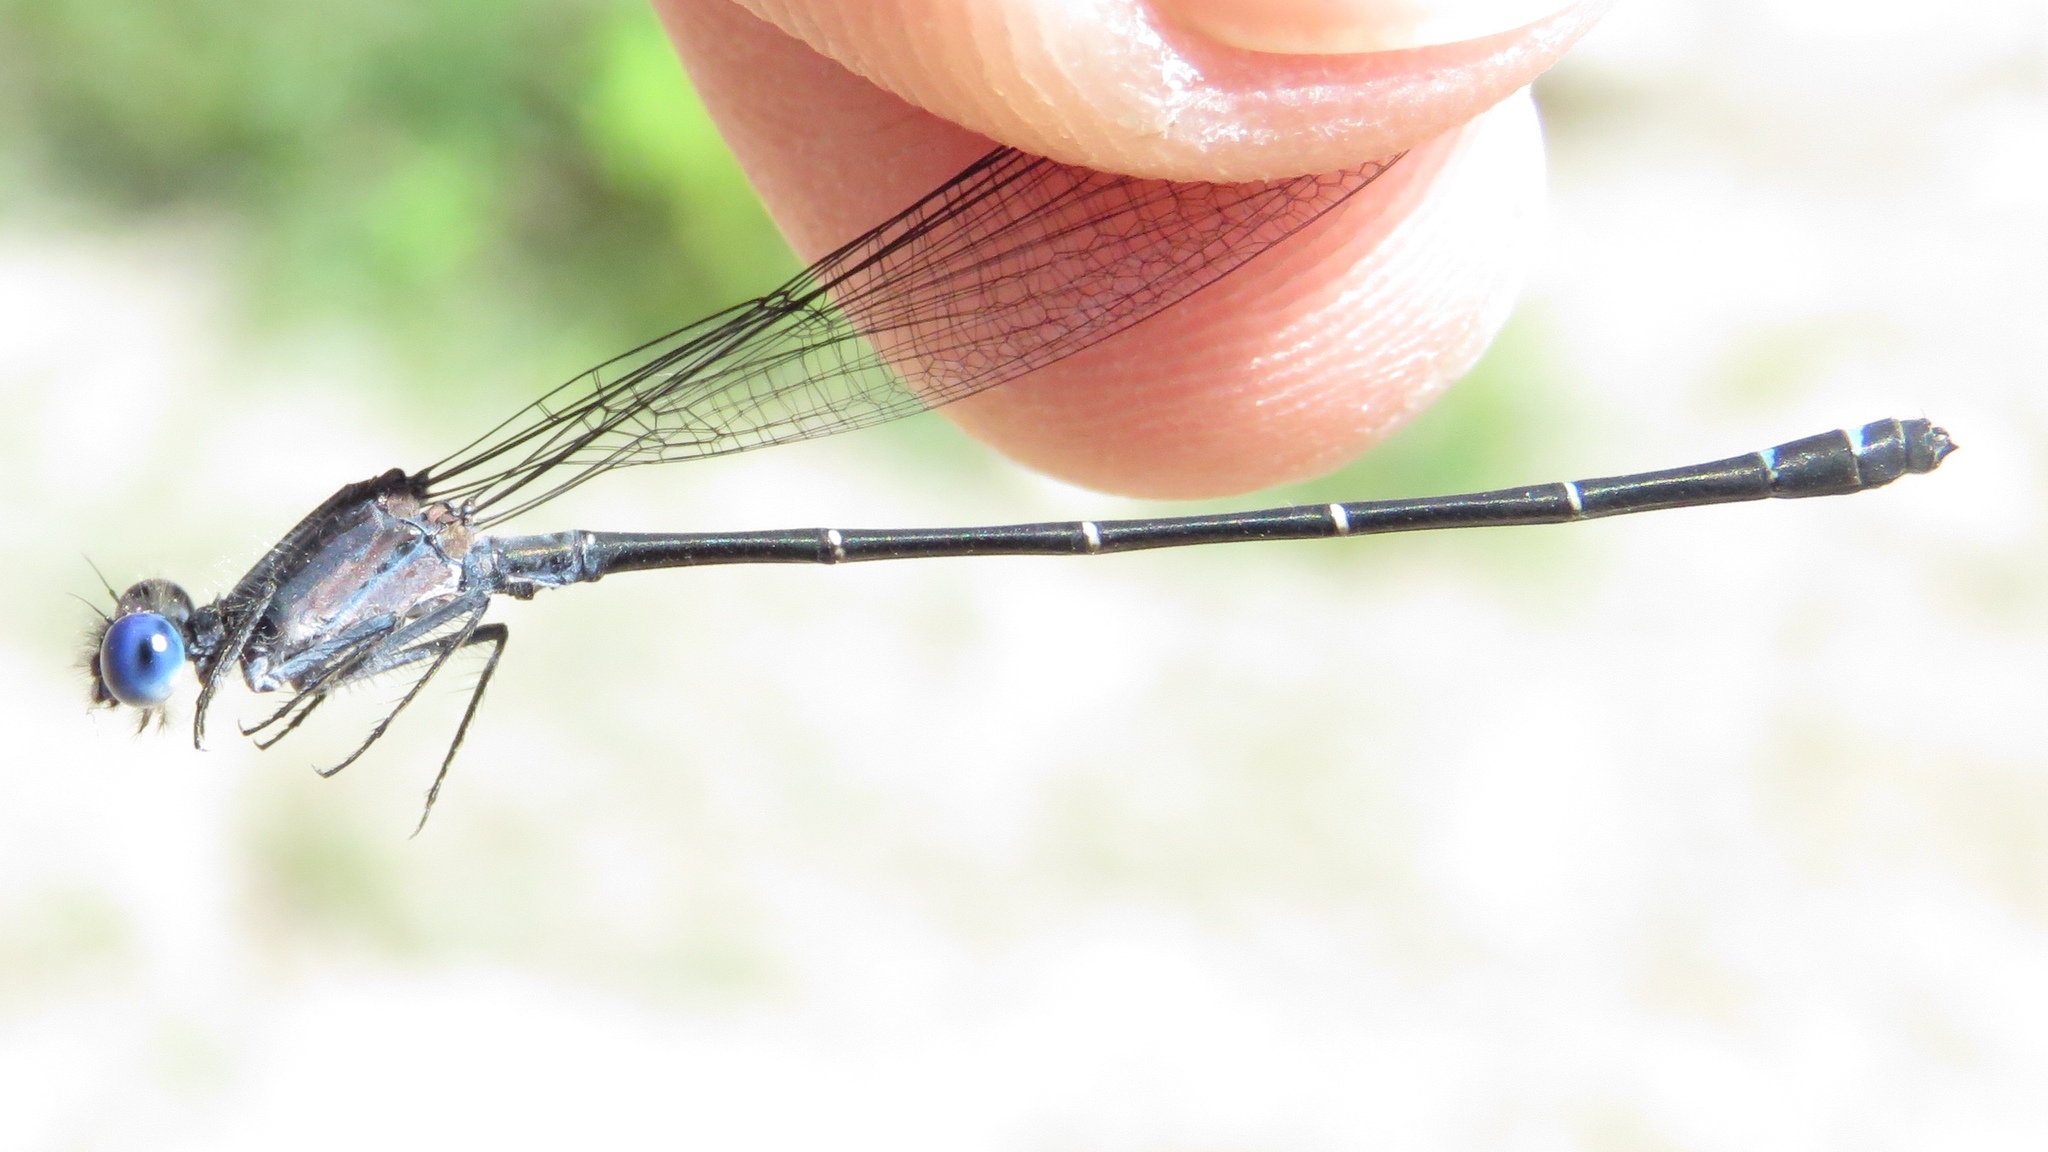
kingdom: Animalia
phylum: Arthropoda
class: Insecta
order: Odonata
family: Coenagrionidae
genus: Argia
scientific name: Argia translata
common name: Dusky dancer
